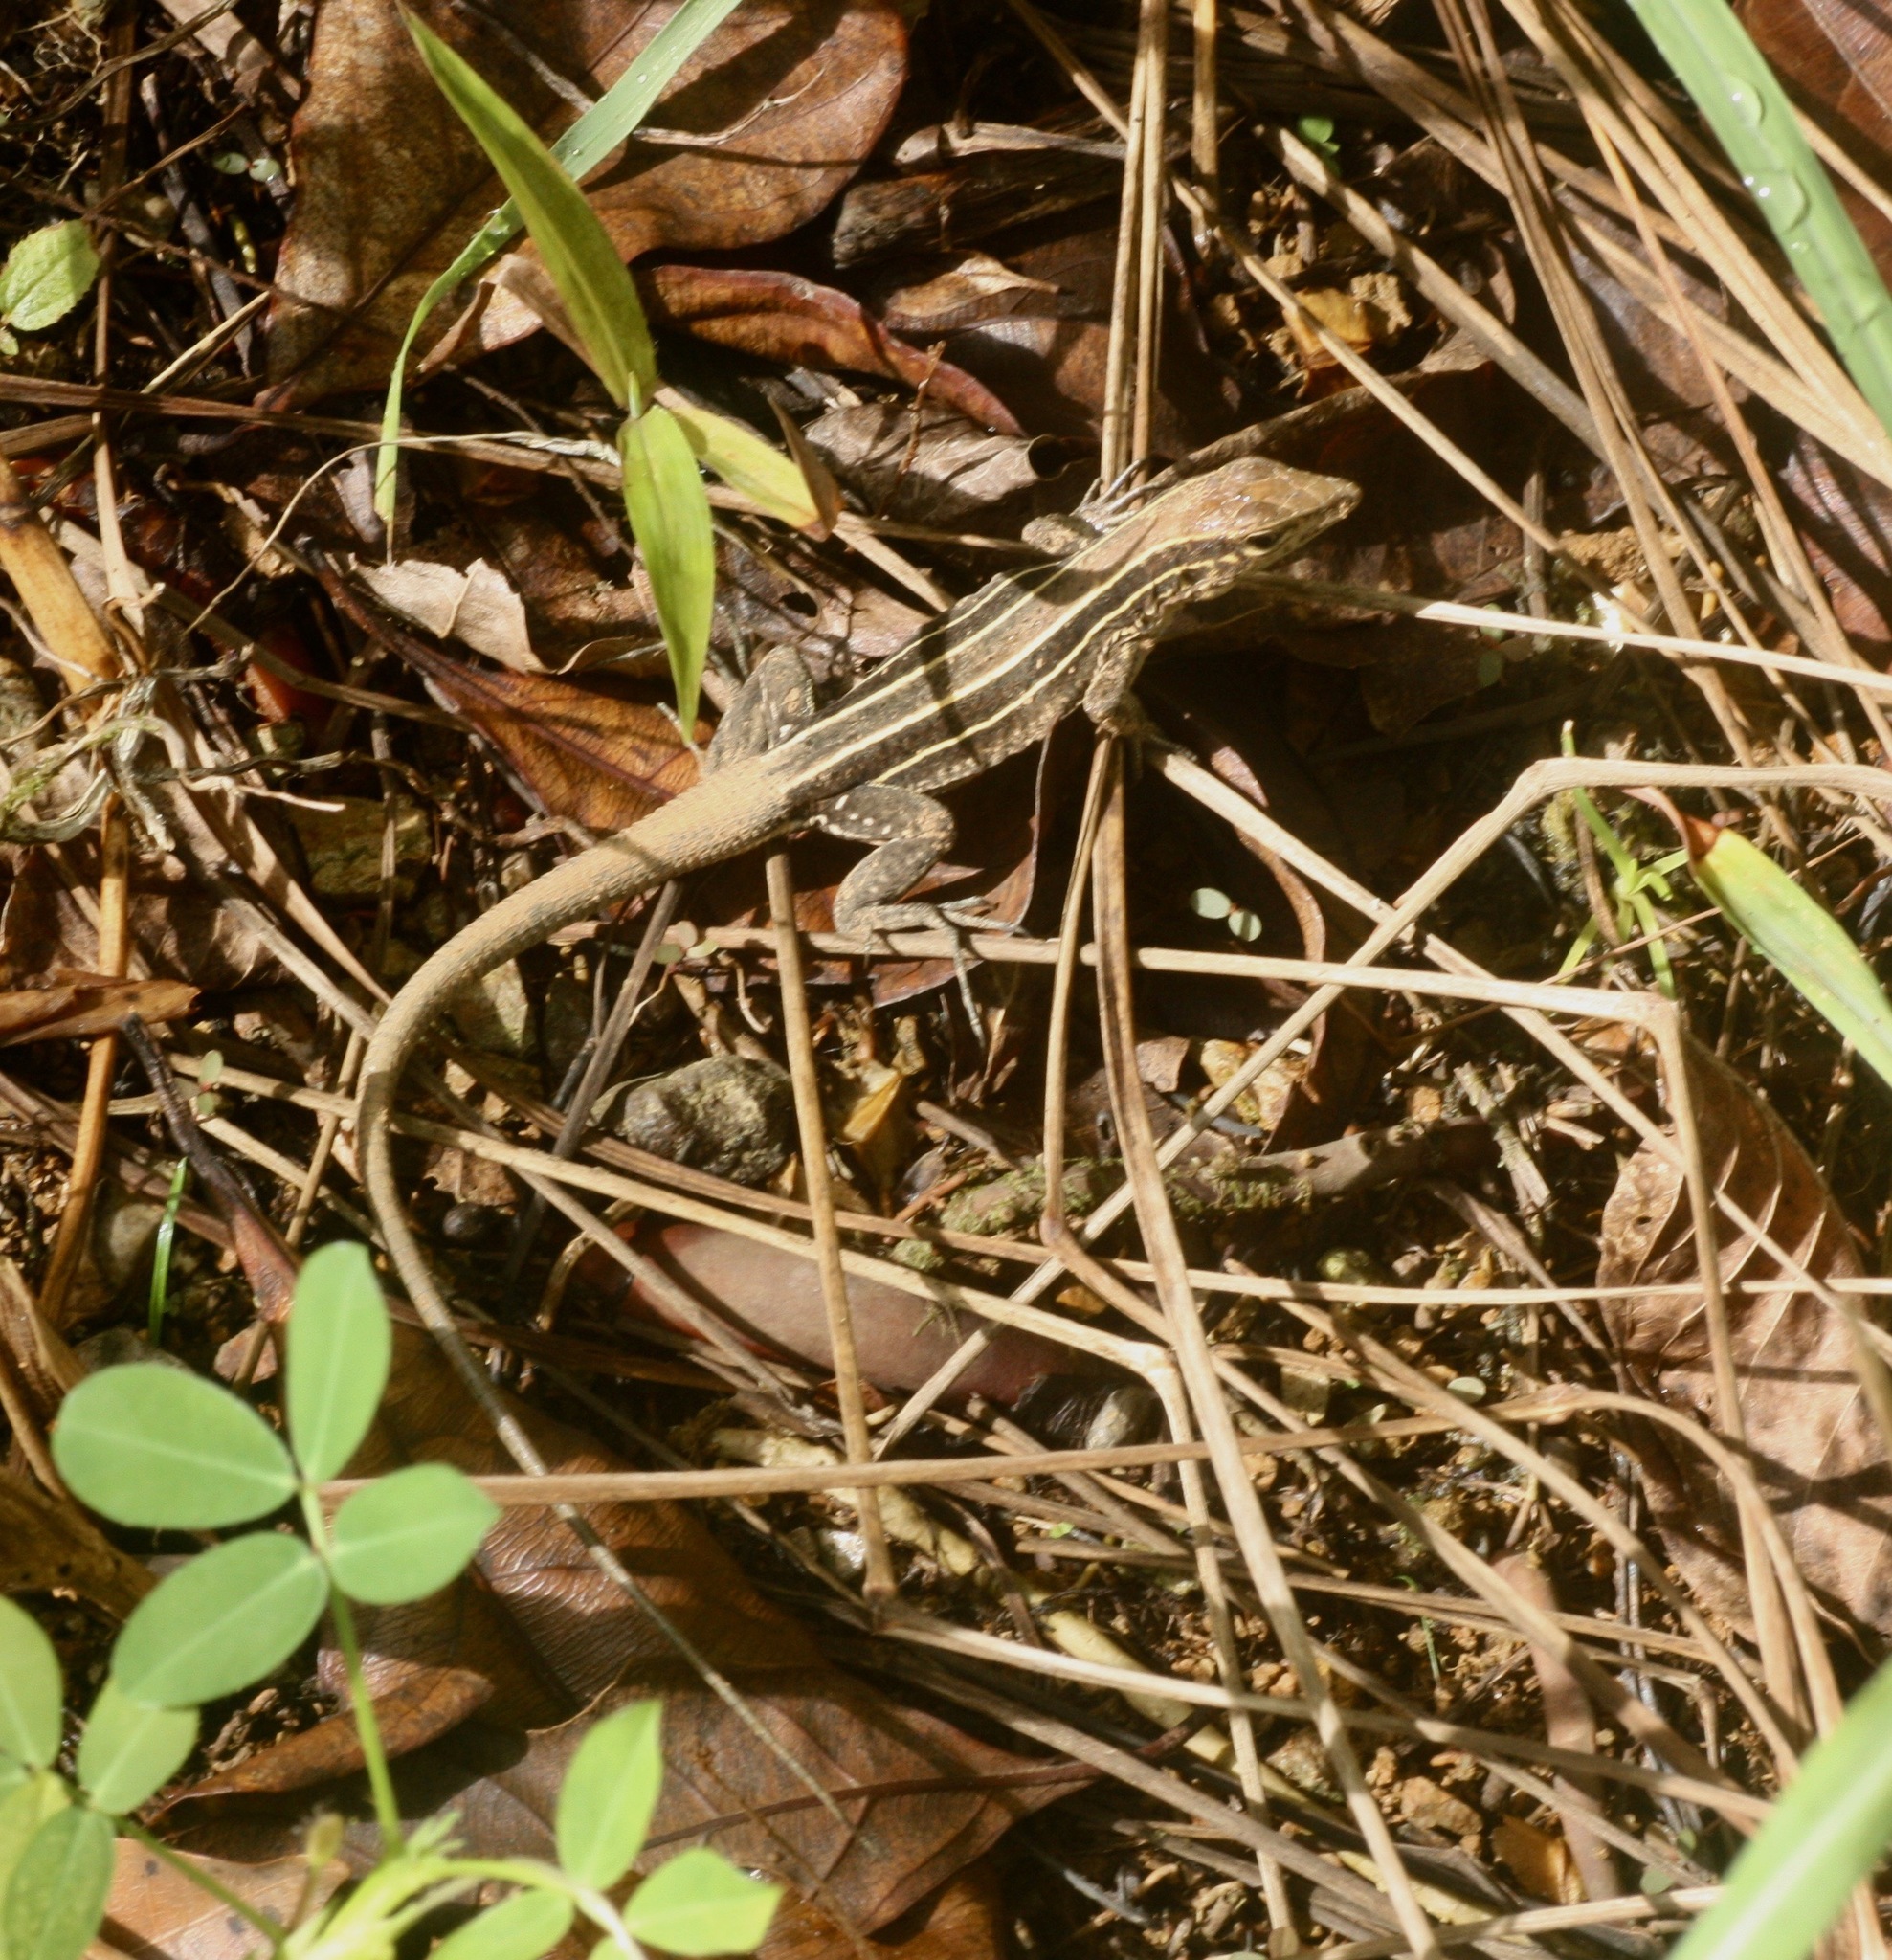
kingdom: Animalia
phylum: Chordata
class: Squamata
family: Teiidae
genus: Holcosus
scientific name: Holcosus quadrilineatus
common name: Four-lined ameiva
